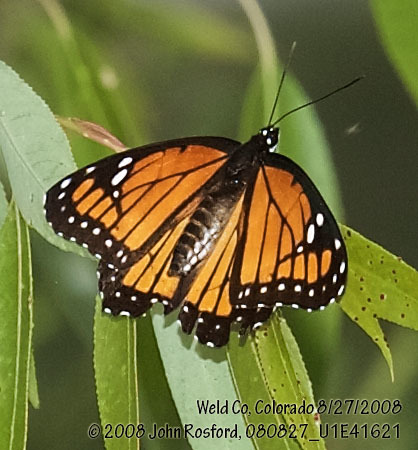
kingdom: Animalia
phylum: Arthropoda
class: Insecta
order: Lepidoptera
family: Nymphalidae
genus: Limenitis
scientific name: Limenitis archippus
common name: Viceroy
